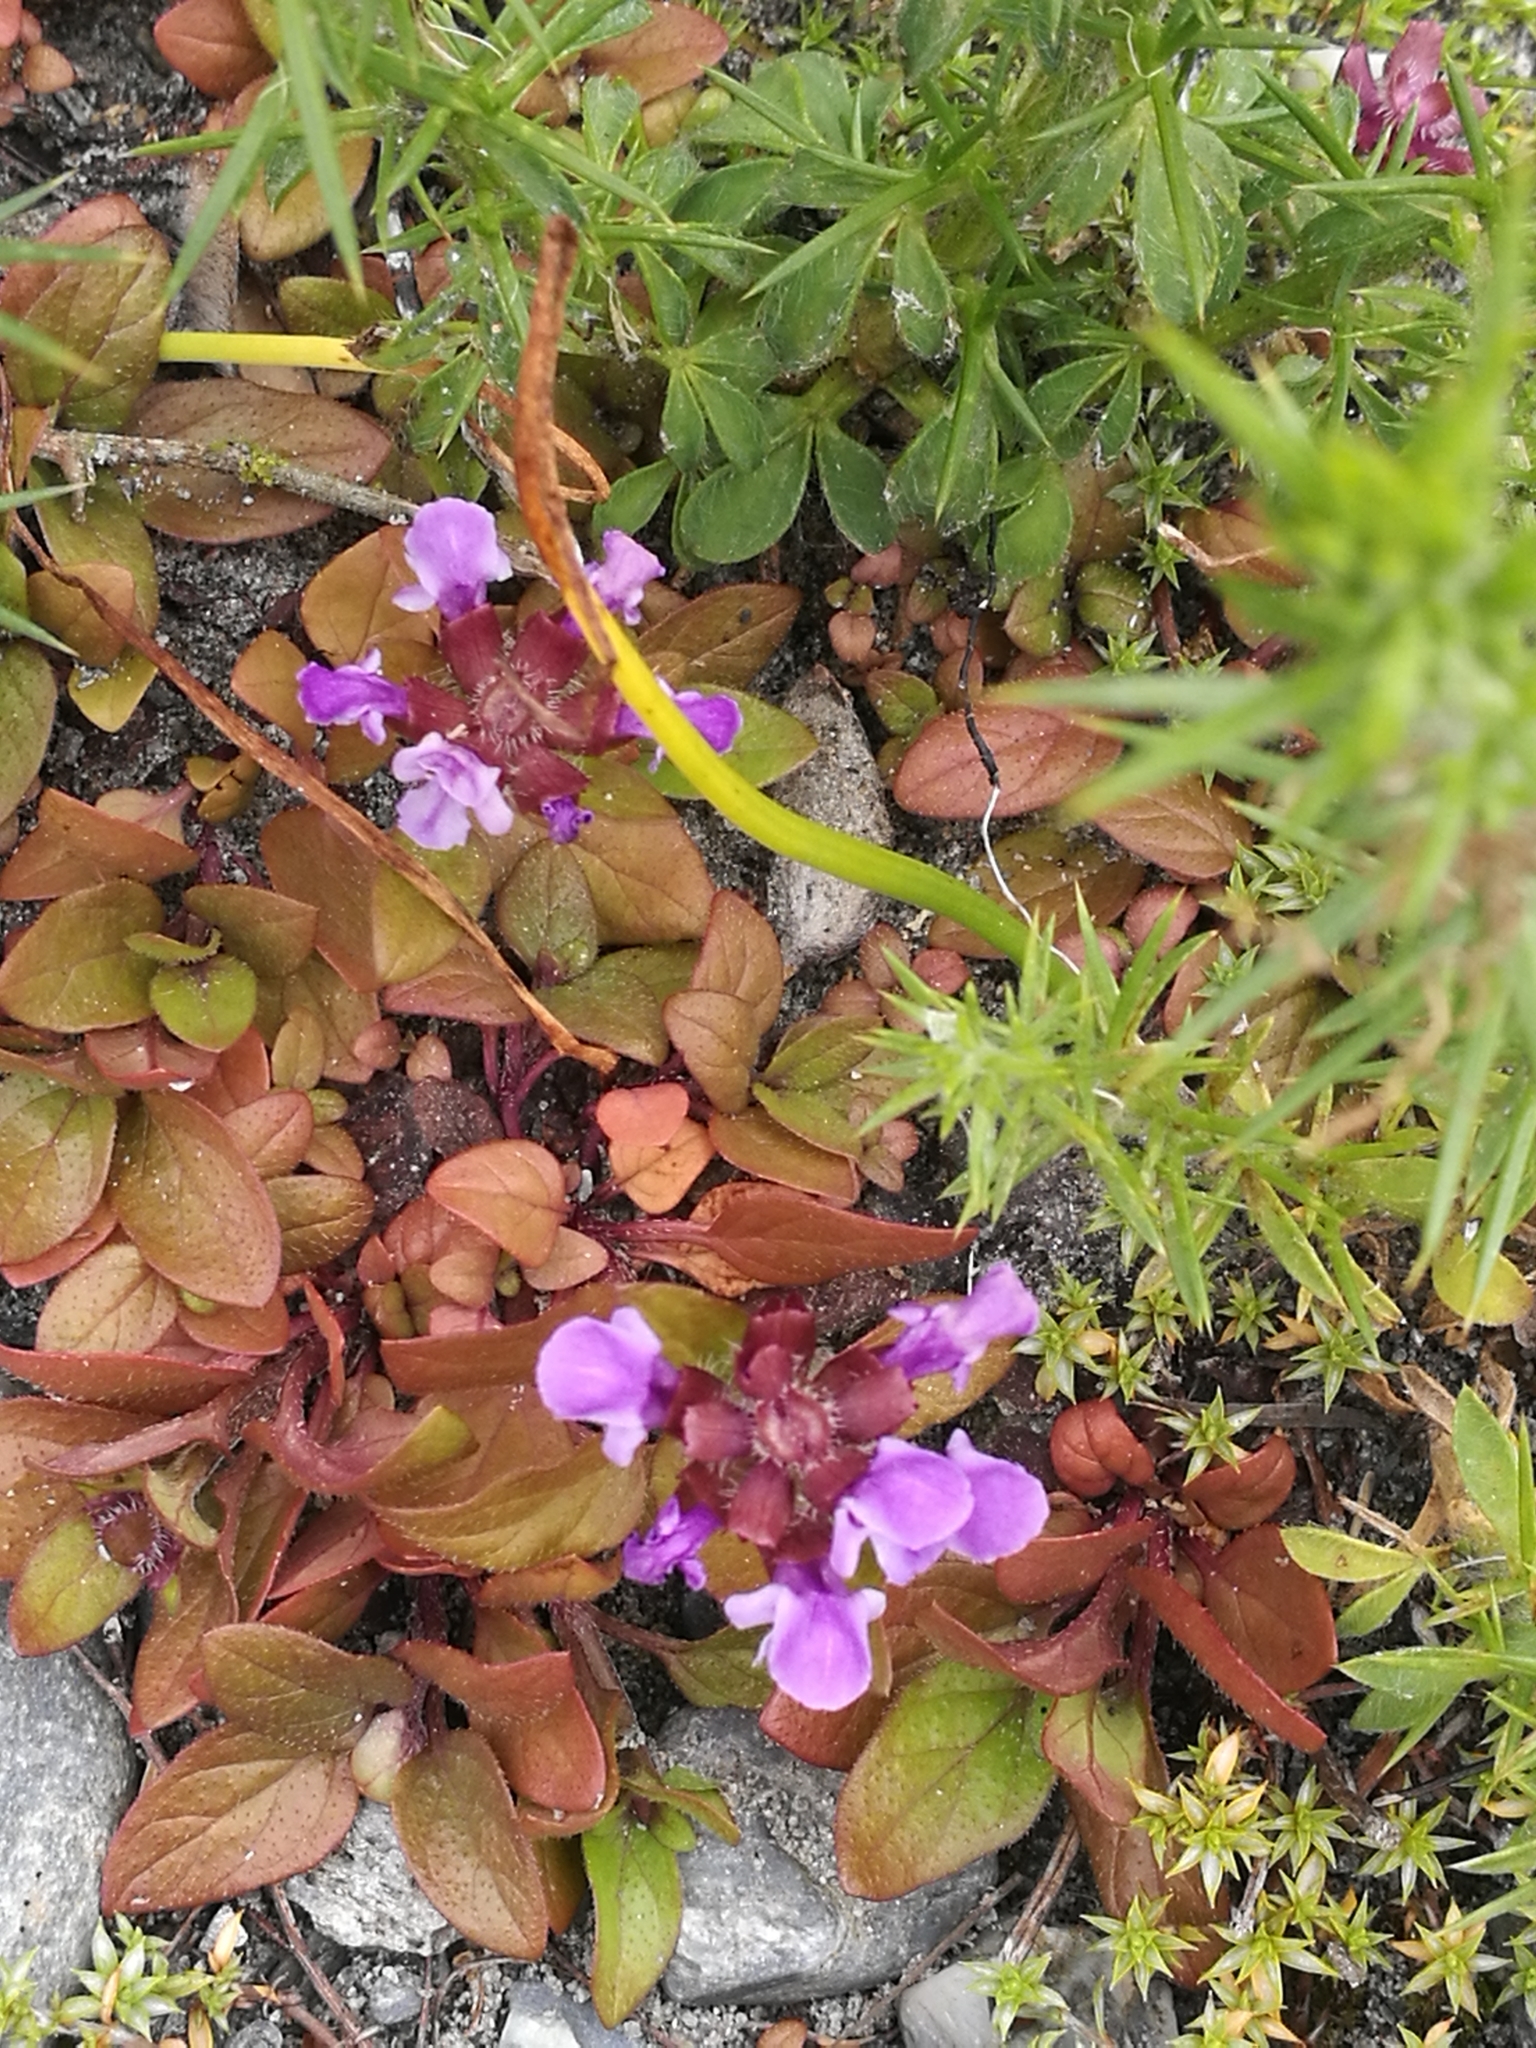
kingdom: Plantae
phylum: Tracheophyta
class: Magnoliopsida
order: Lamiales
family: Lamiaceae
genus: Prunella
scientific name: Prunella vulgaris
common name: Heal-all
